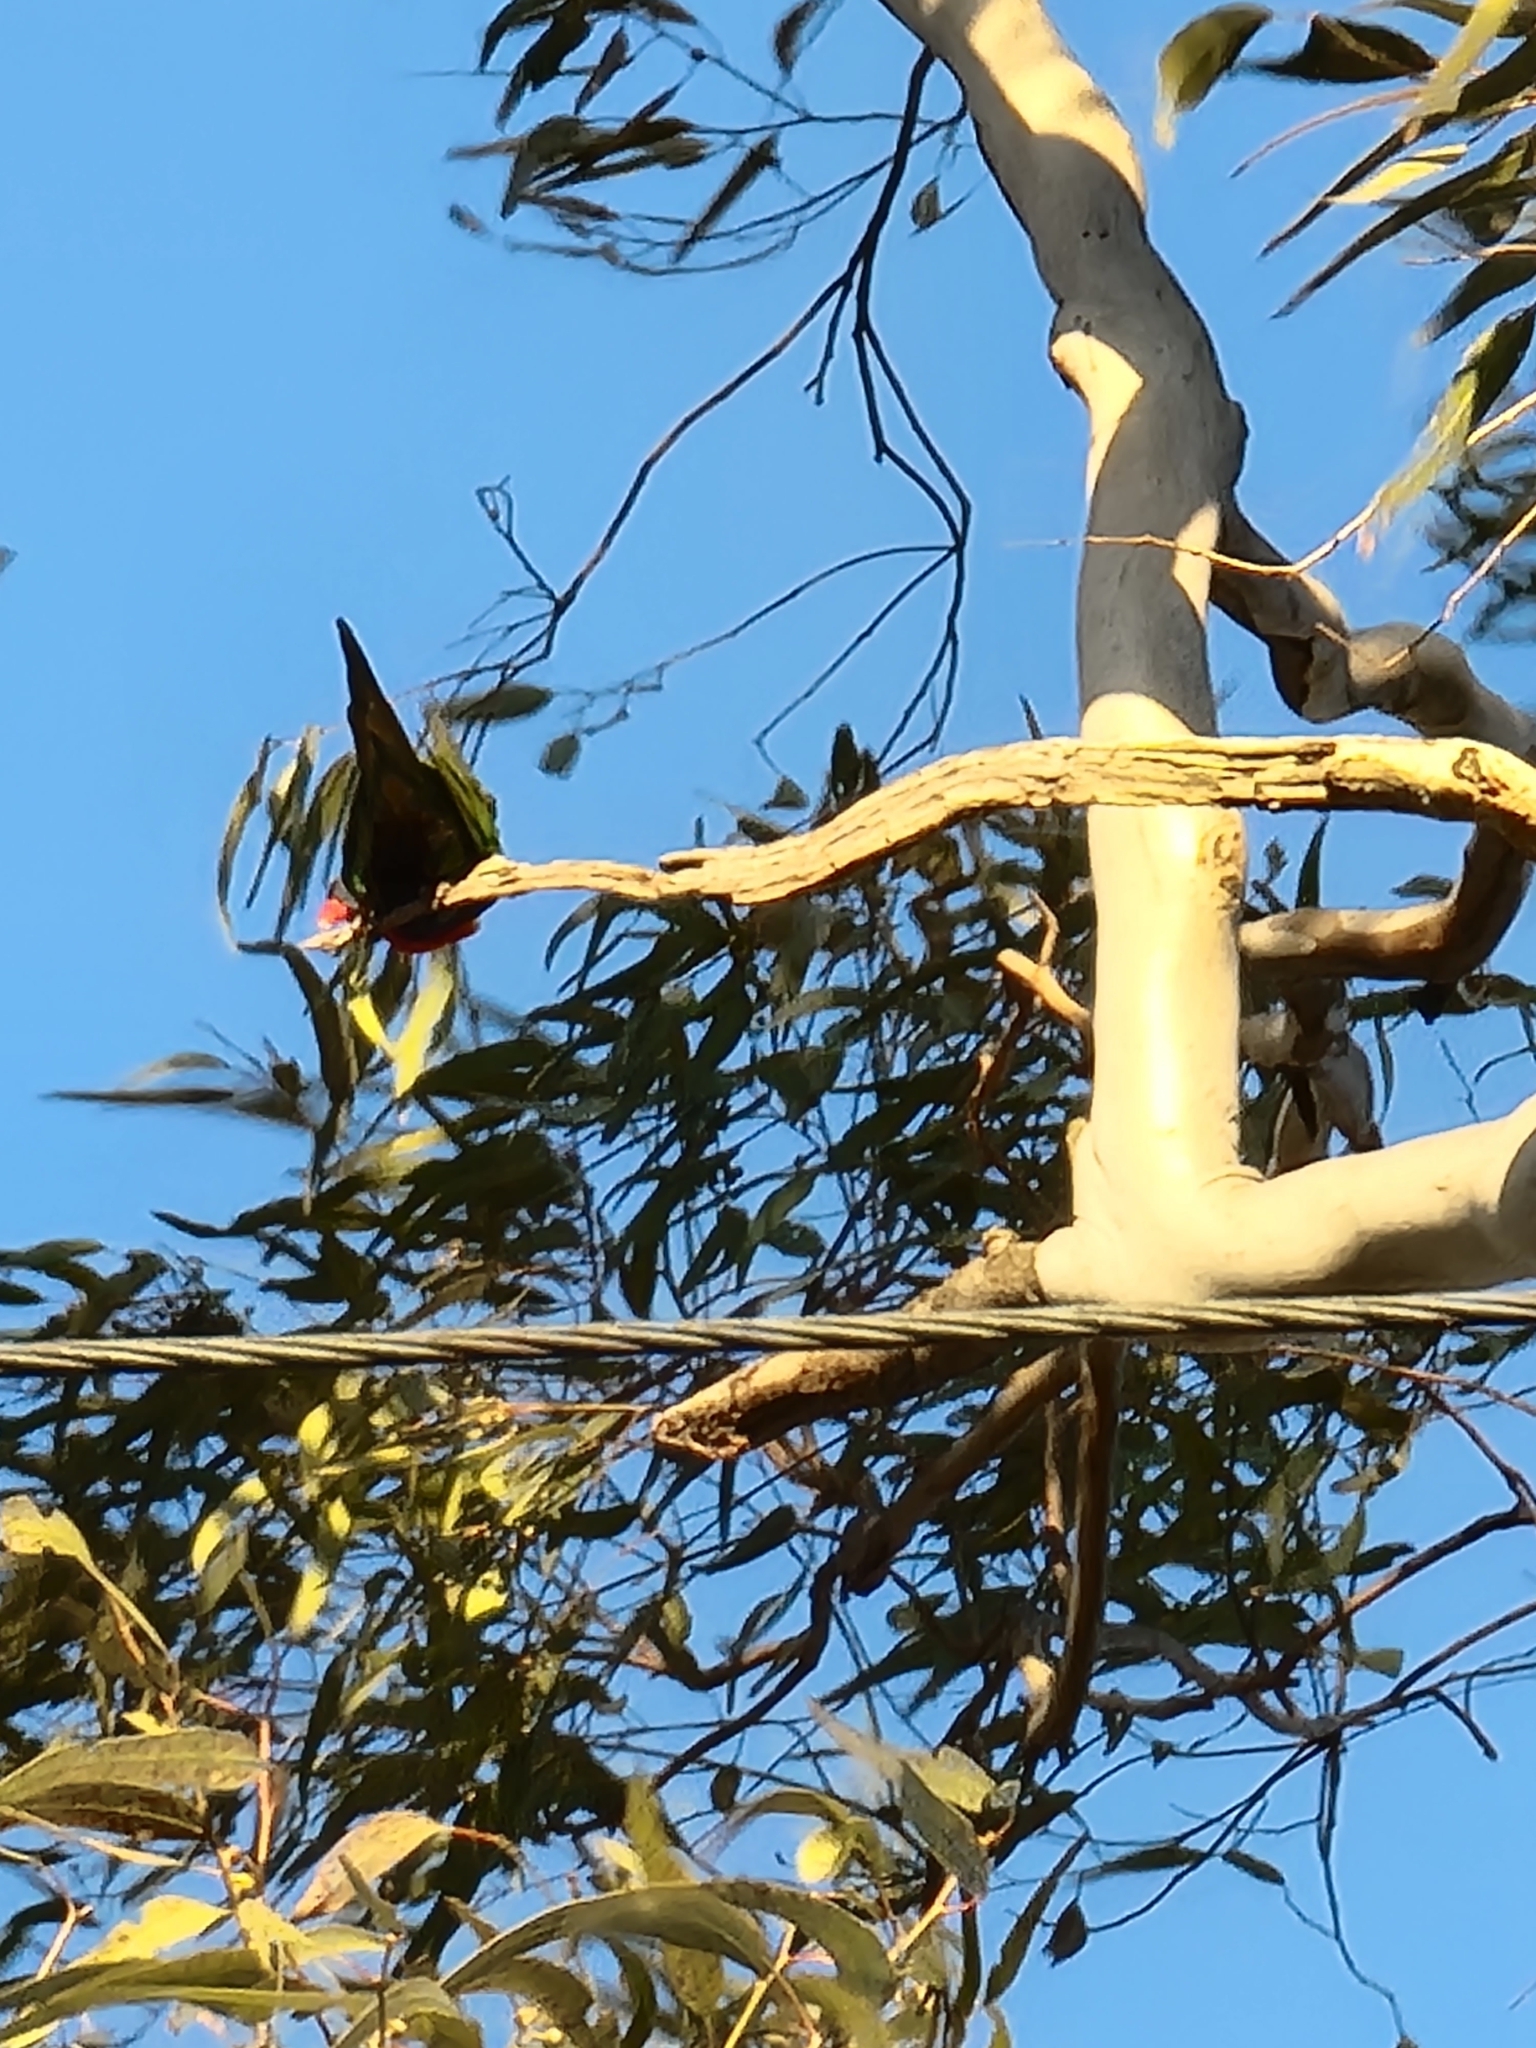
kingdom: Animalia
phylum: Chordata
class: Aves
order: Psittaciformes
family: Psittacidae
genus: Trichoglossus
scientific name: Trichoglossus haematodus
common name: Coconut lorikeet
